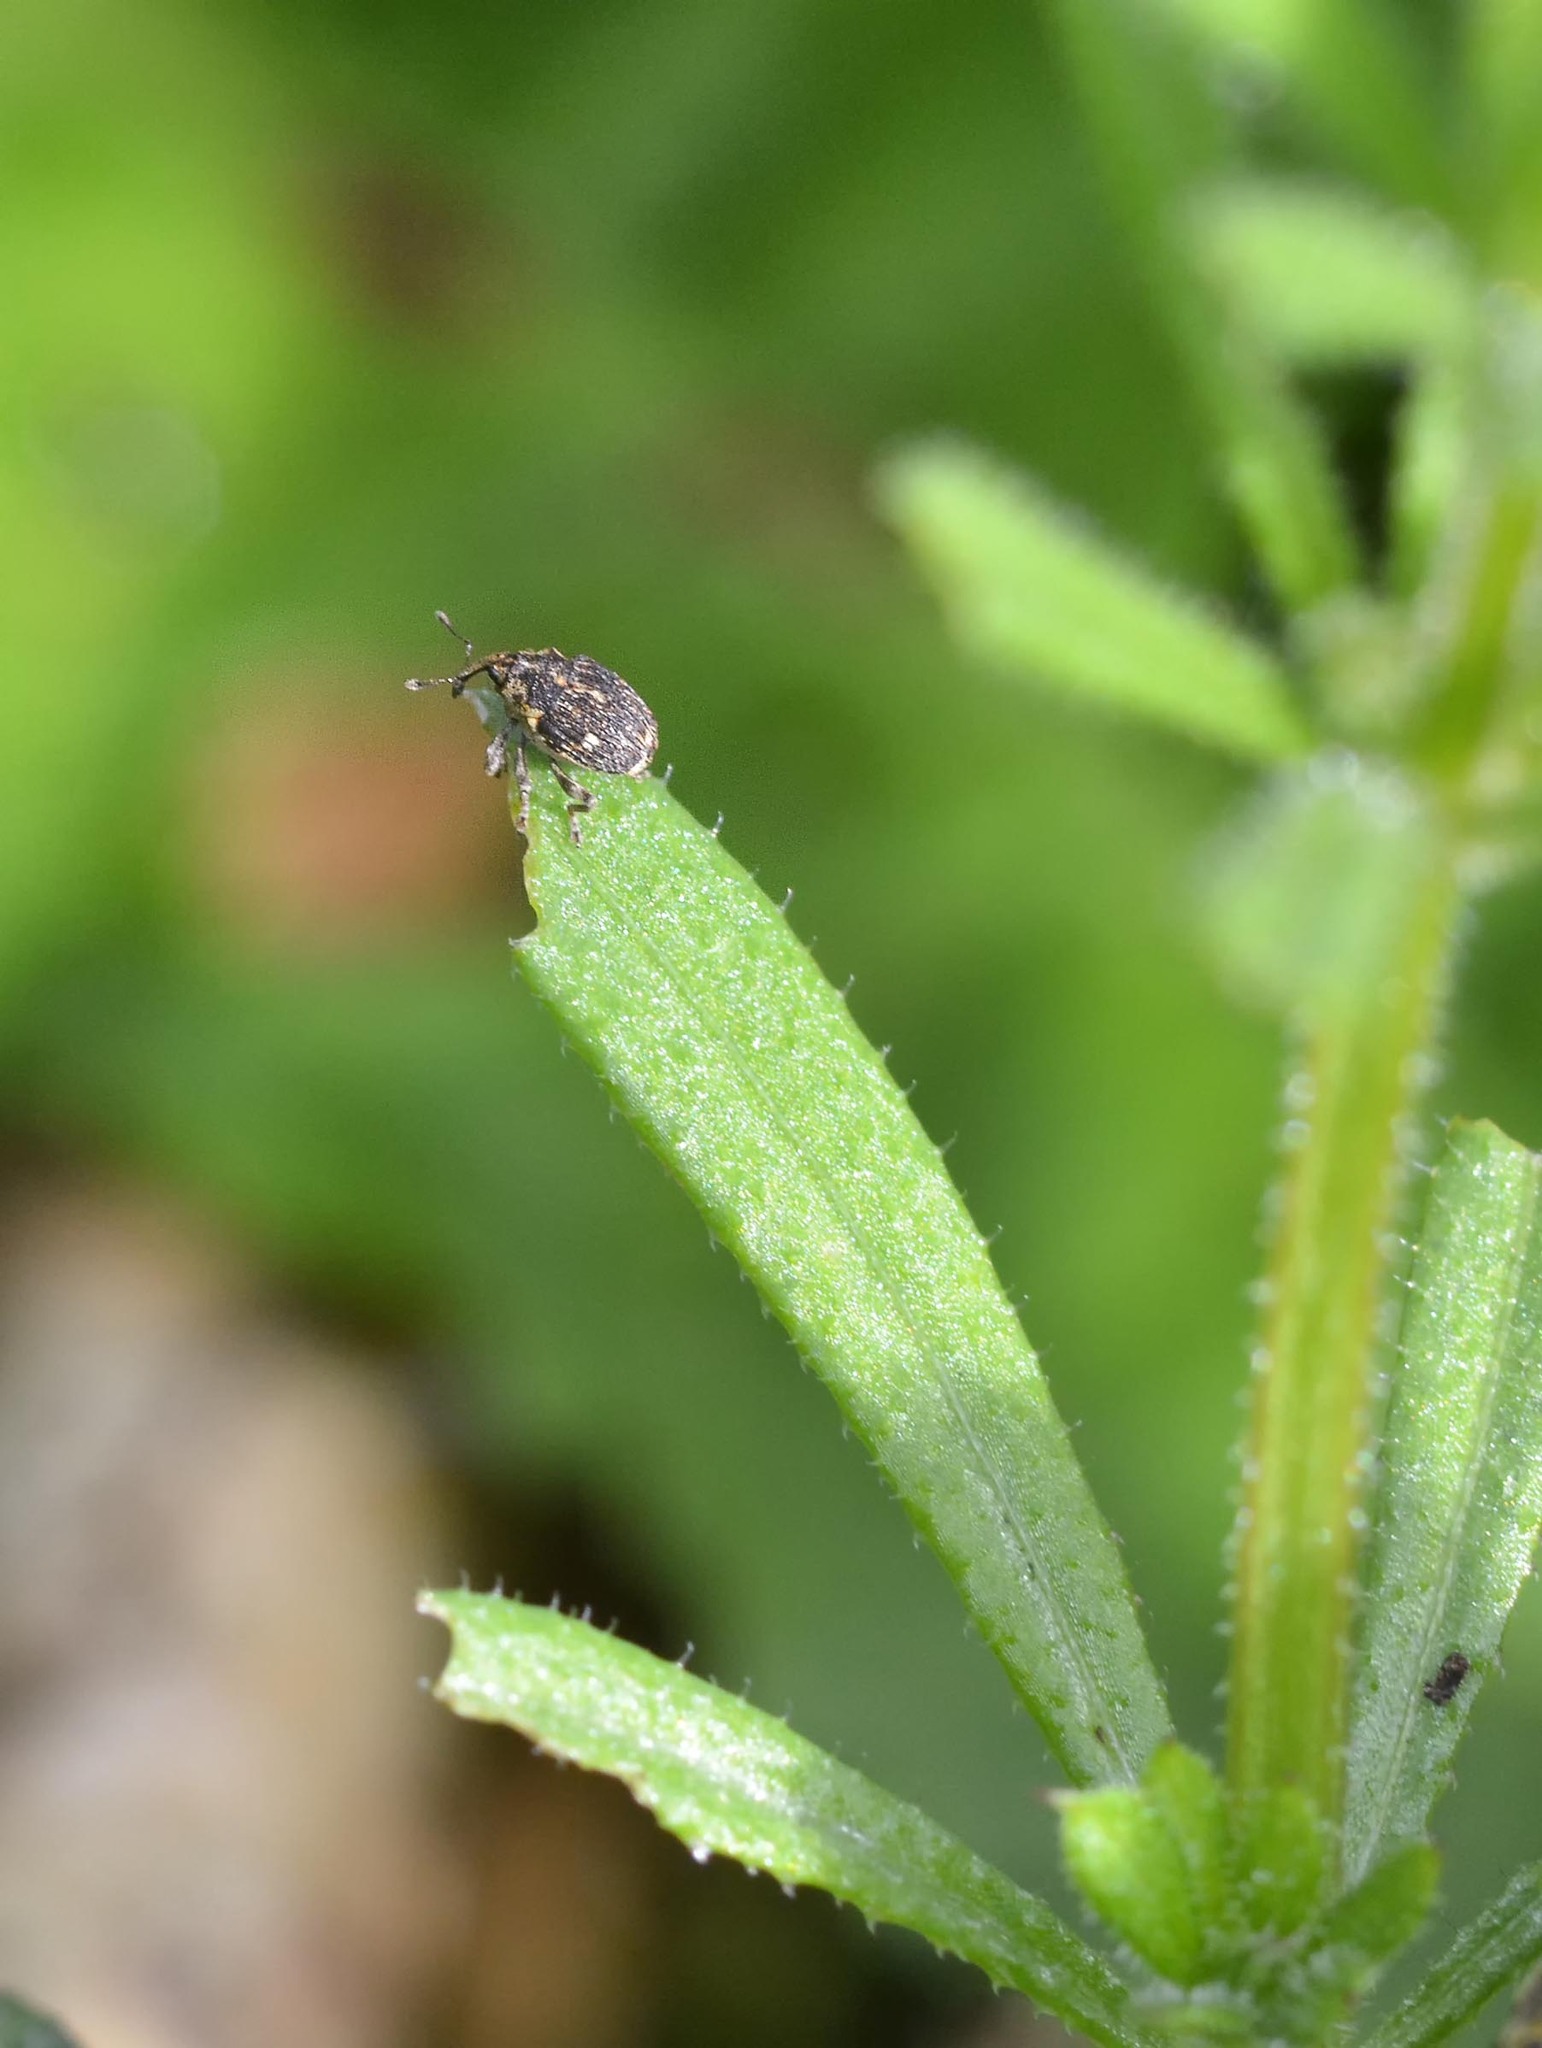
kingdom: Animalia
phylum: Arthropoda
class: Insecta
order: Coleoptera
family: Curculionidae
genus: Nedyus
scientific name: Nedyus quadrimaculatus
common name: Small nettle weevil
